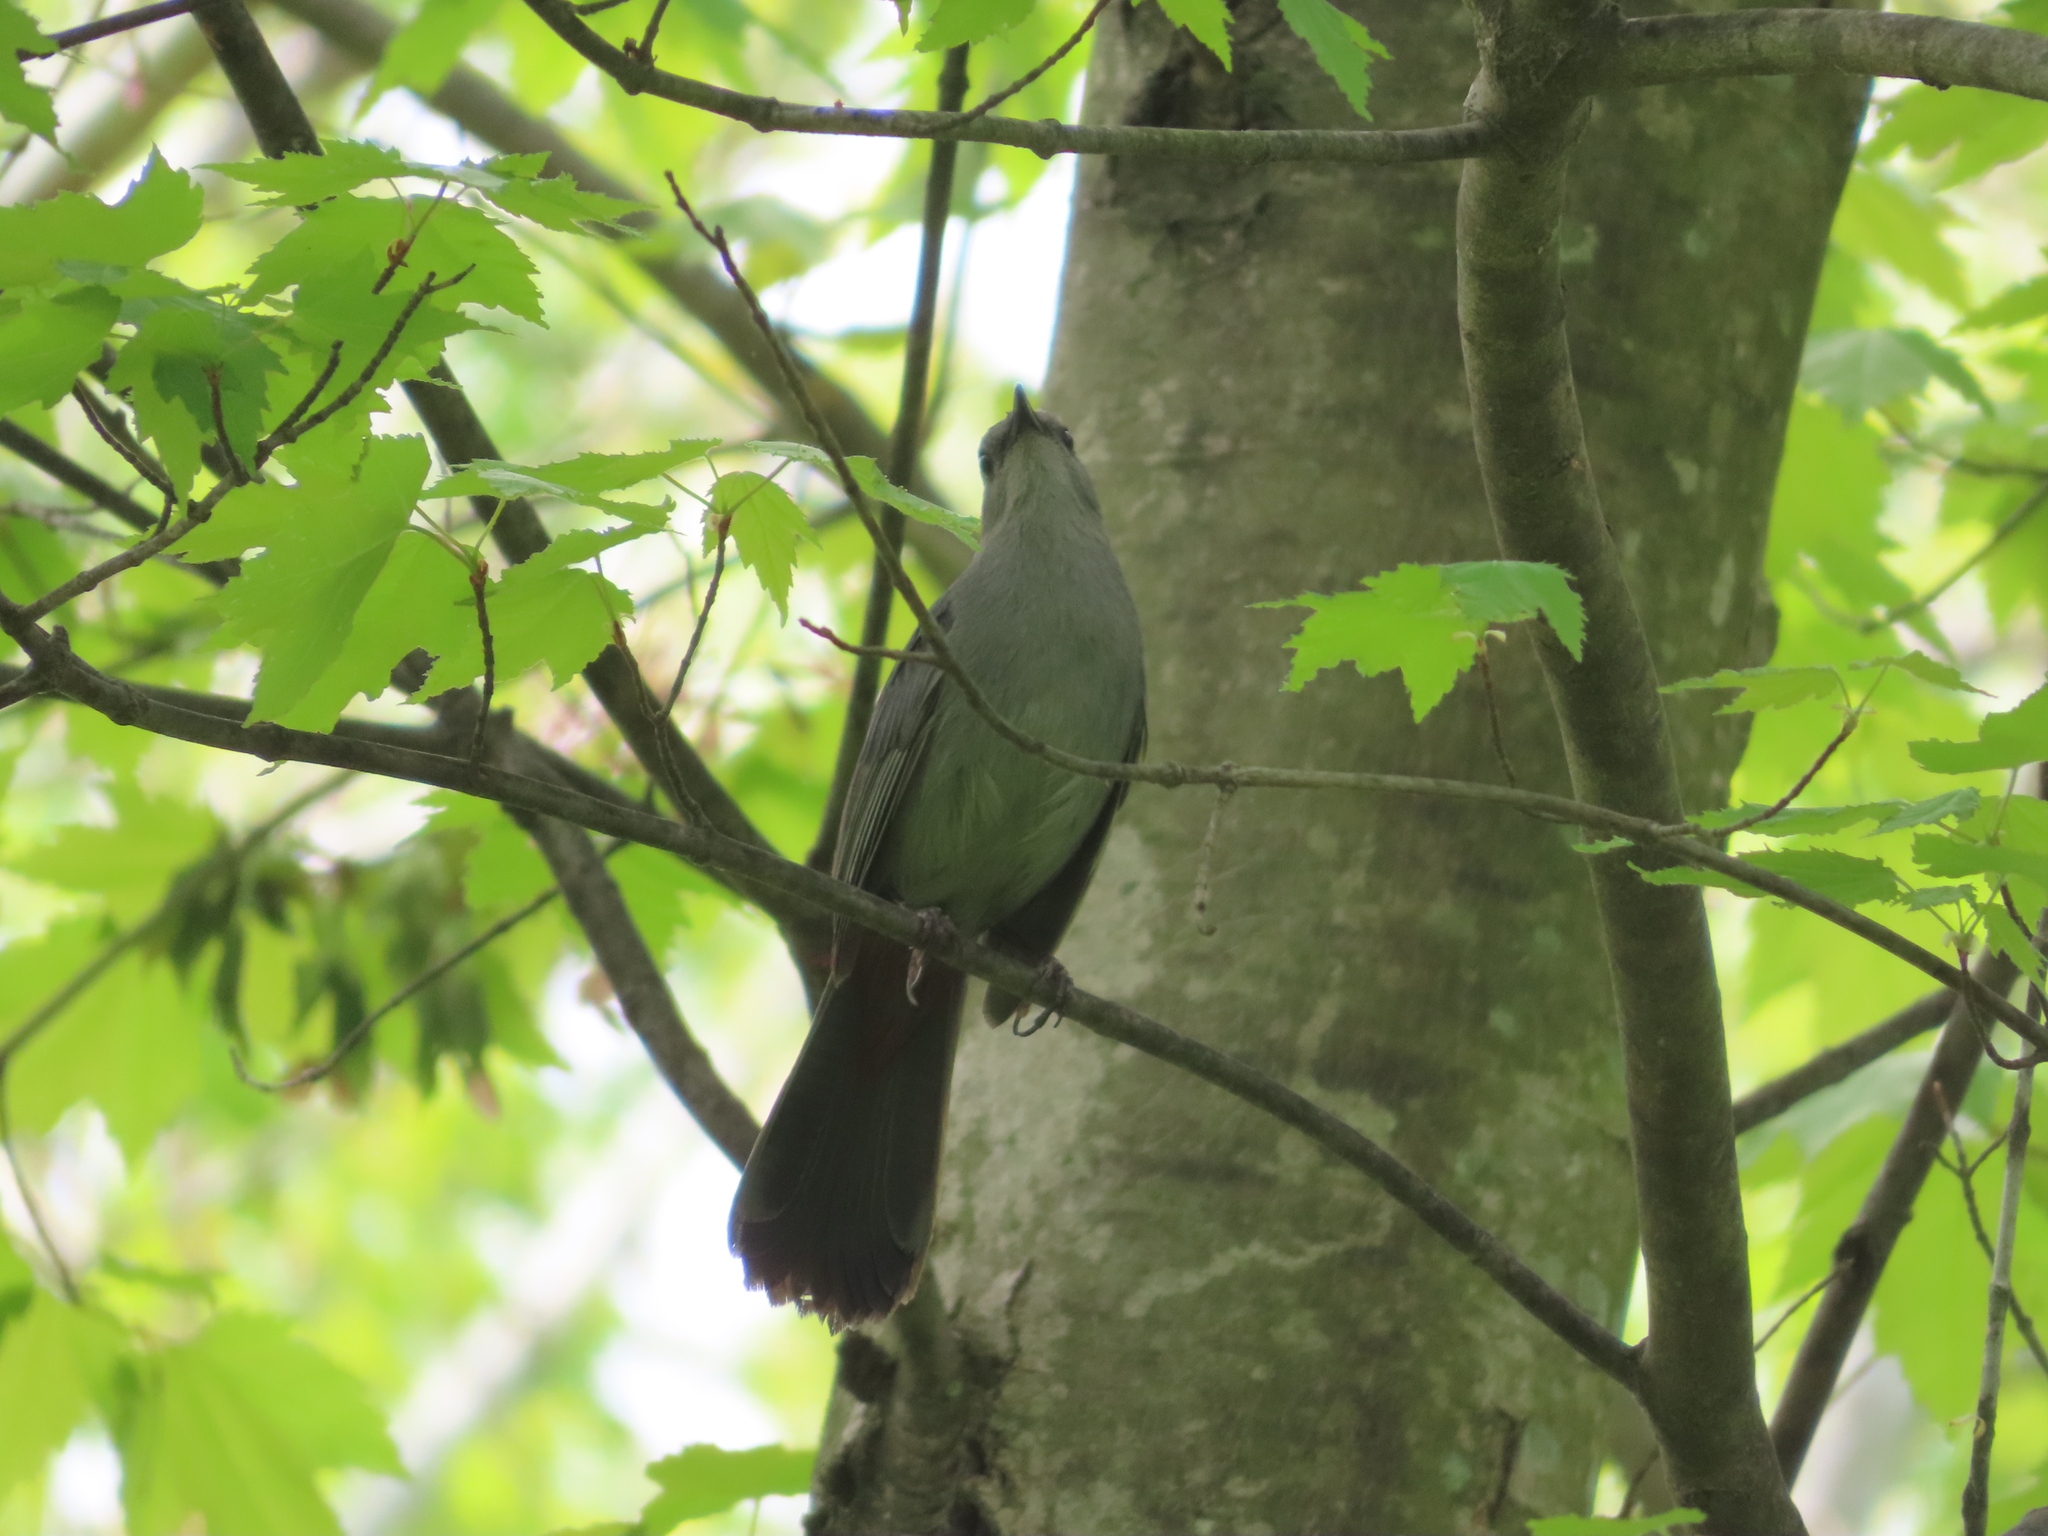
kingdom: Animalia
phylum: Chordata
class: Aves
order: Passeriformes
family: Mimidae
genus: Dumetella
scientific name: Dumetella carolinensis
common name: Gray catbird
